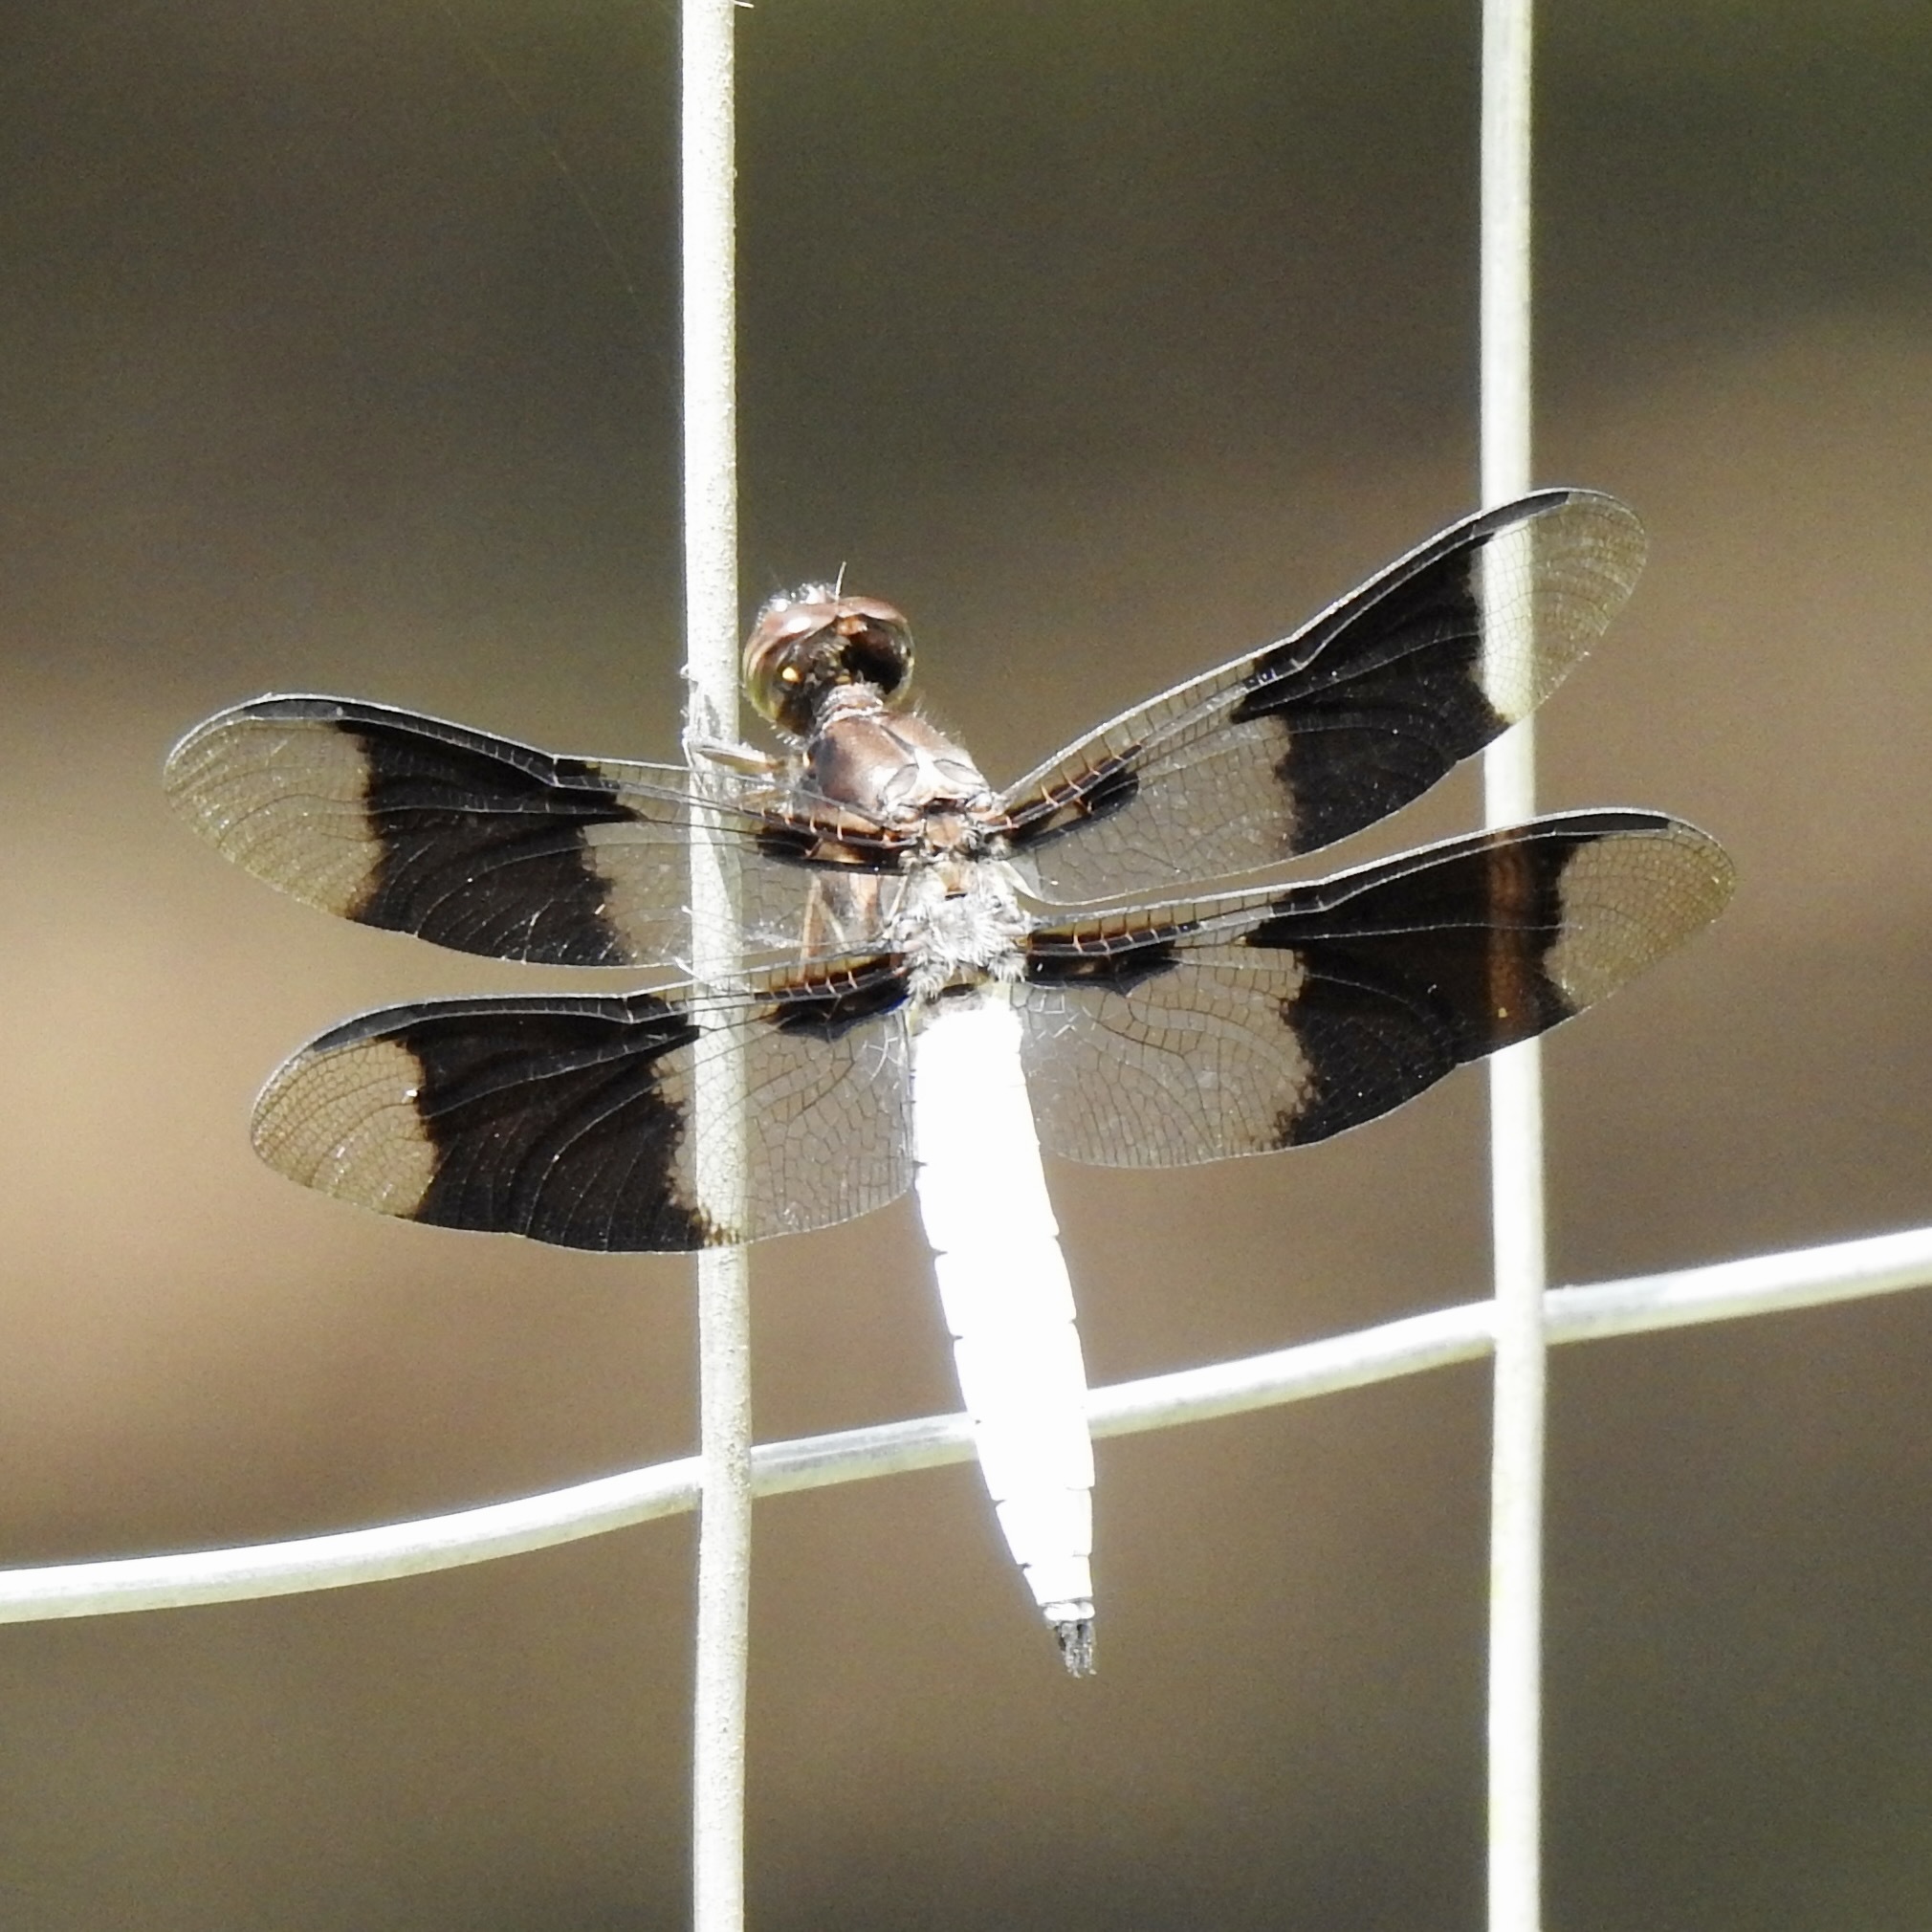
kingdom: Animalia
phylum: Arthropoda
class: Insecta
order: Odonata
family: Libellulidae
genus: Plathemis
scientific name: Plathemis lydia
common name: Common whitetail
